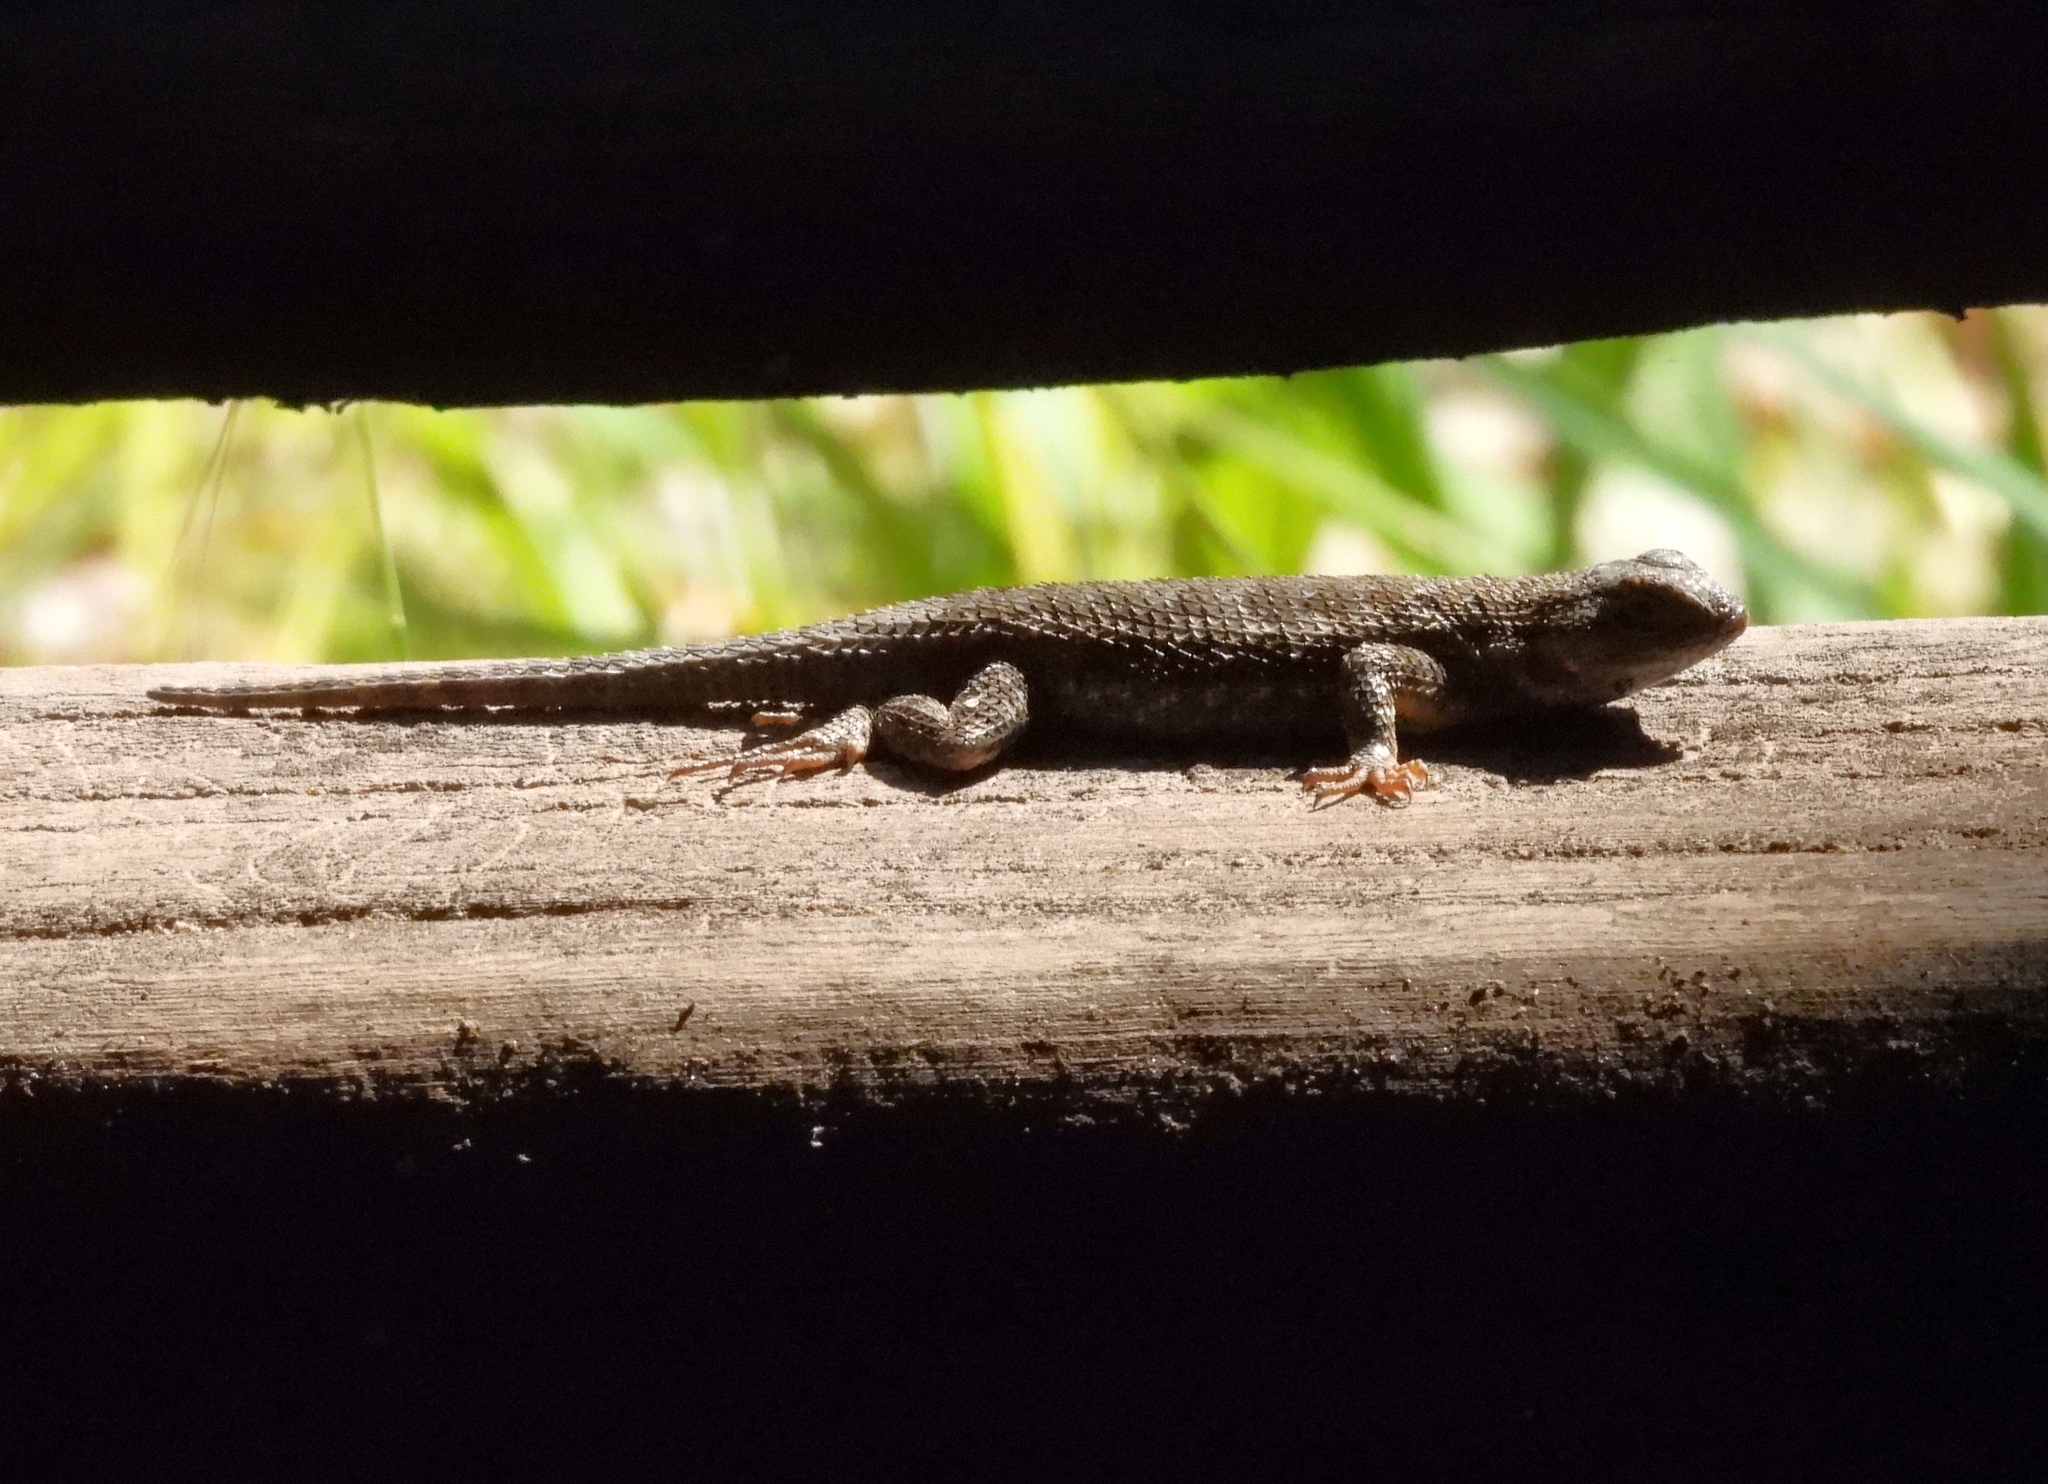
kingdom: Animalia
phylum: Chordata
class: Squamata
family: Phrynosomatidae
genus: Sceloporus
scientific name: Sceloporus occidentalis
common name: Western fence lizard
